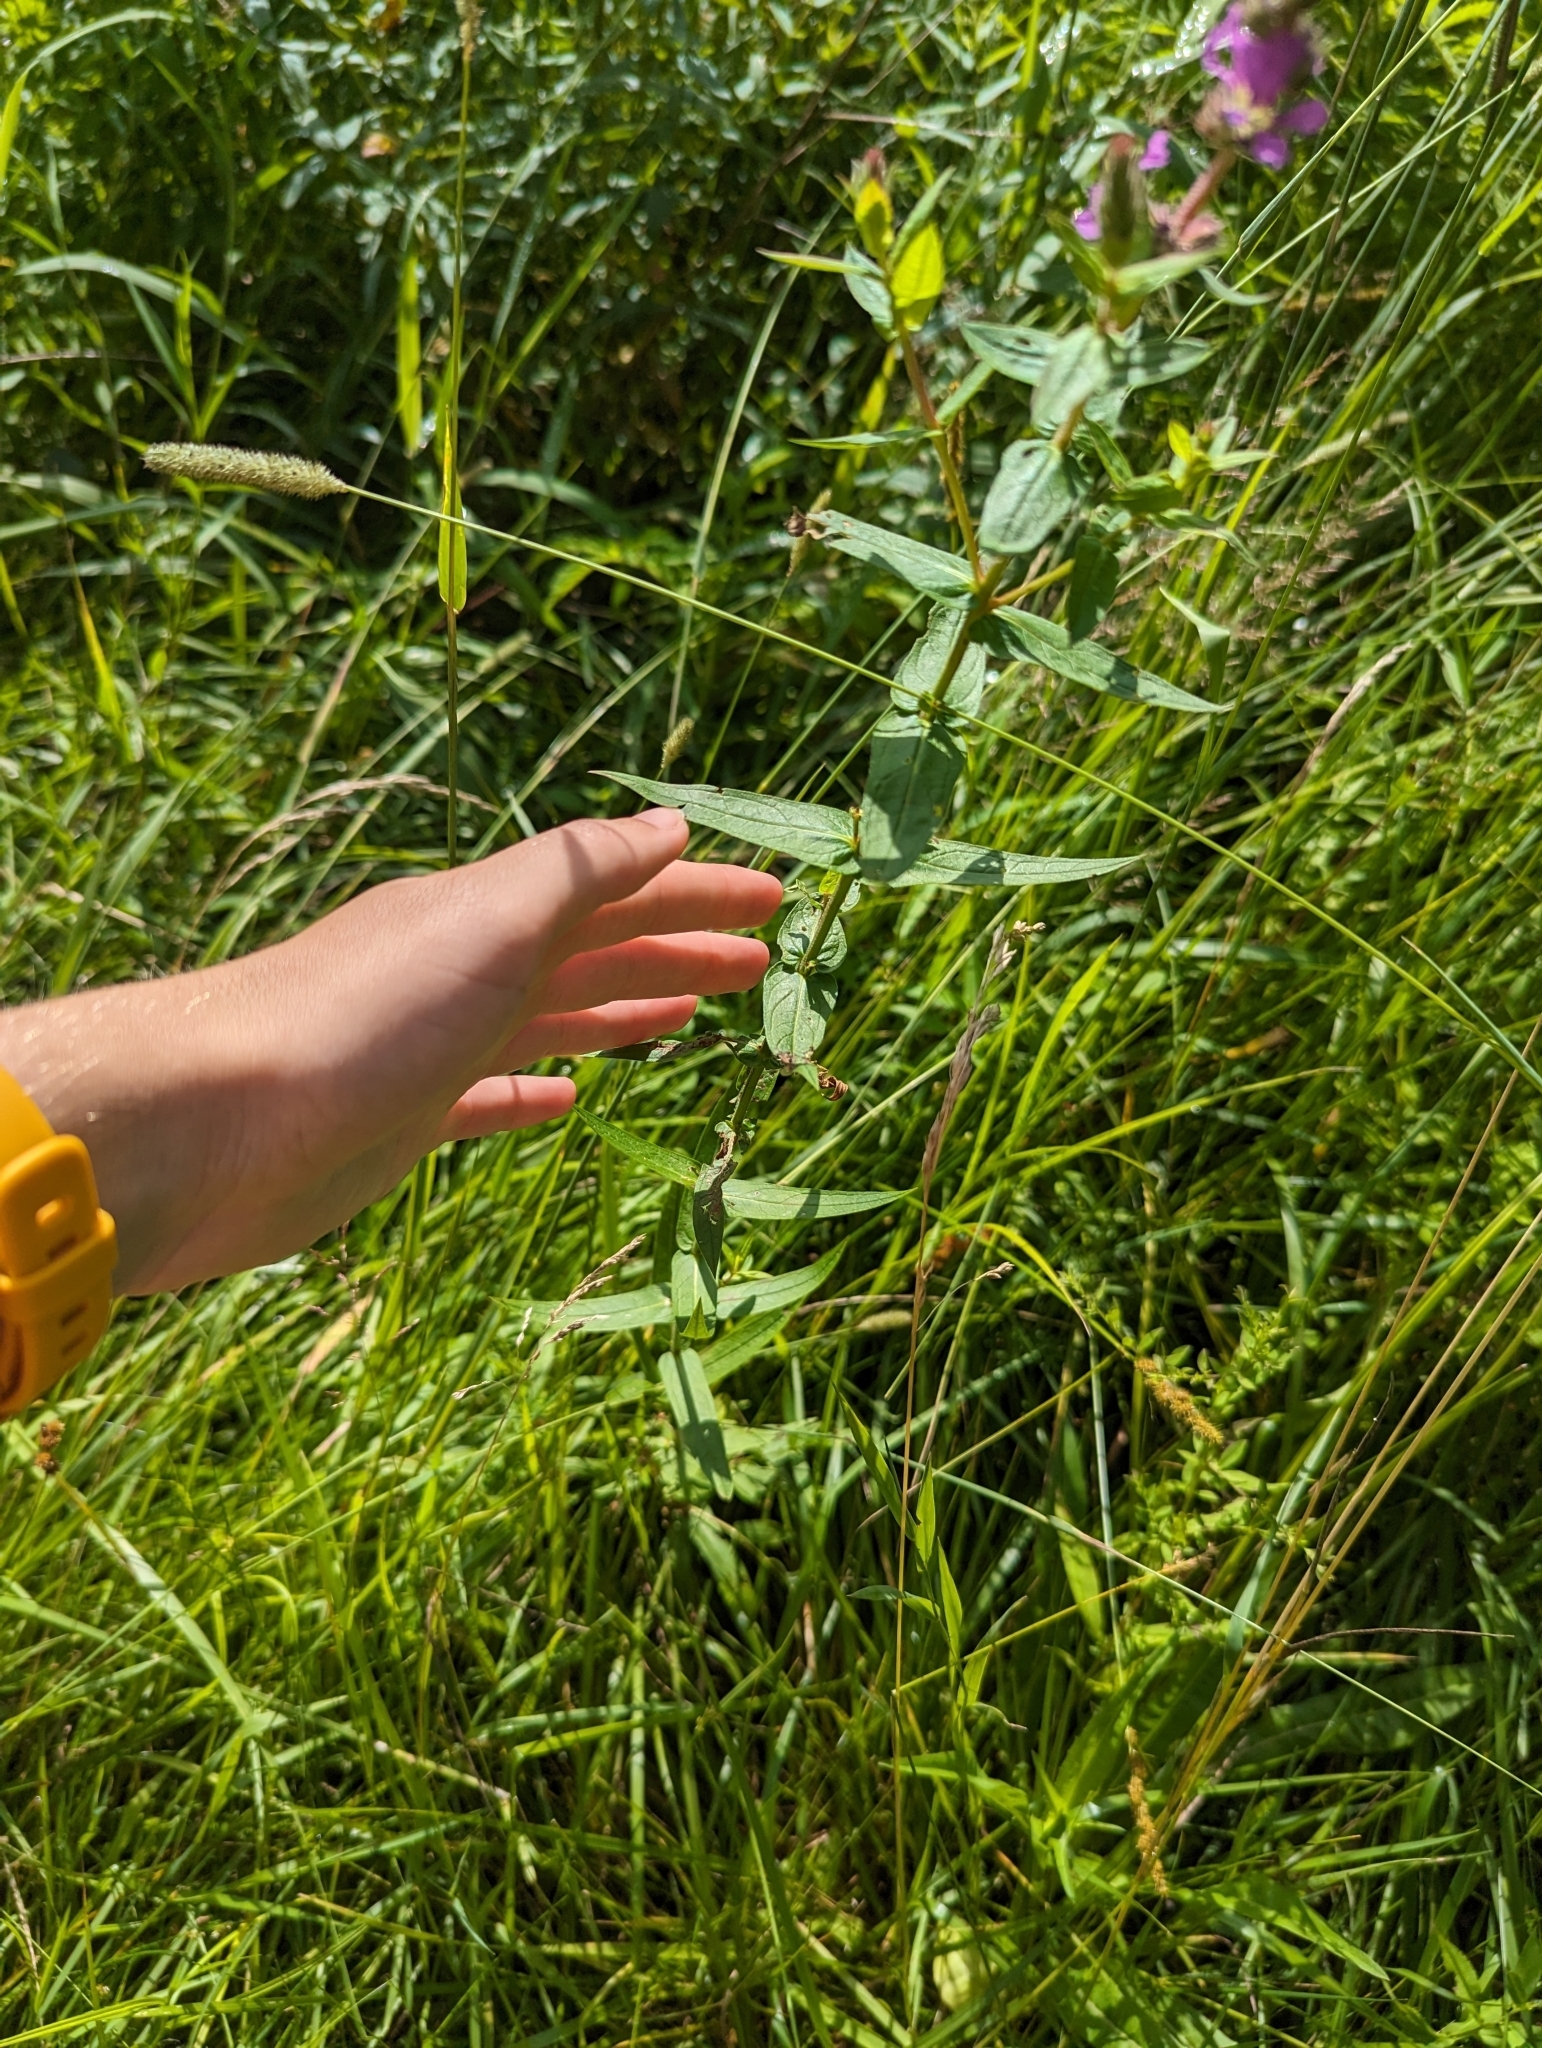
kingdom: Plantae
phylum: Tracheophyta
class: Magnoliopsida
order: Myrtales
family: Lythraceae
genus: Lythrum
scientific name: Lythrum salicaria
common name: Purple loosestrife
